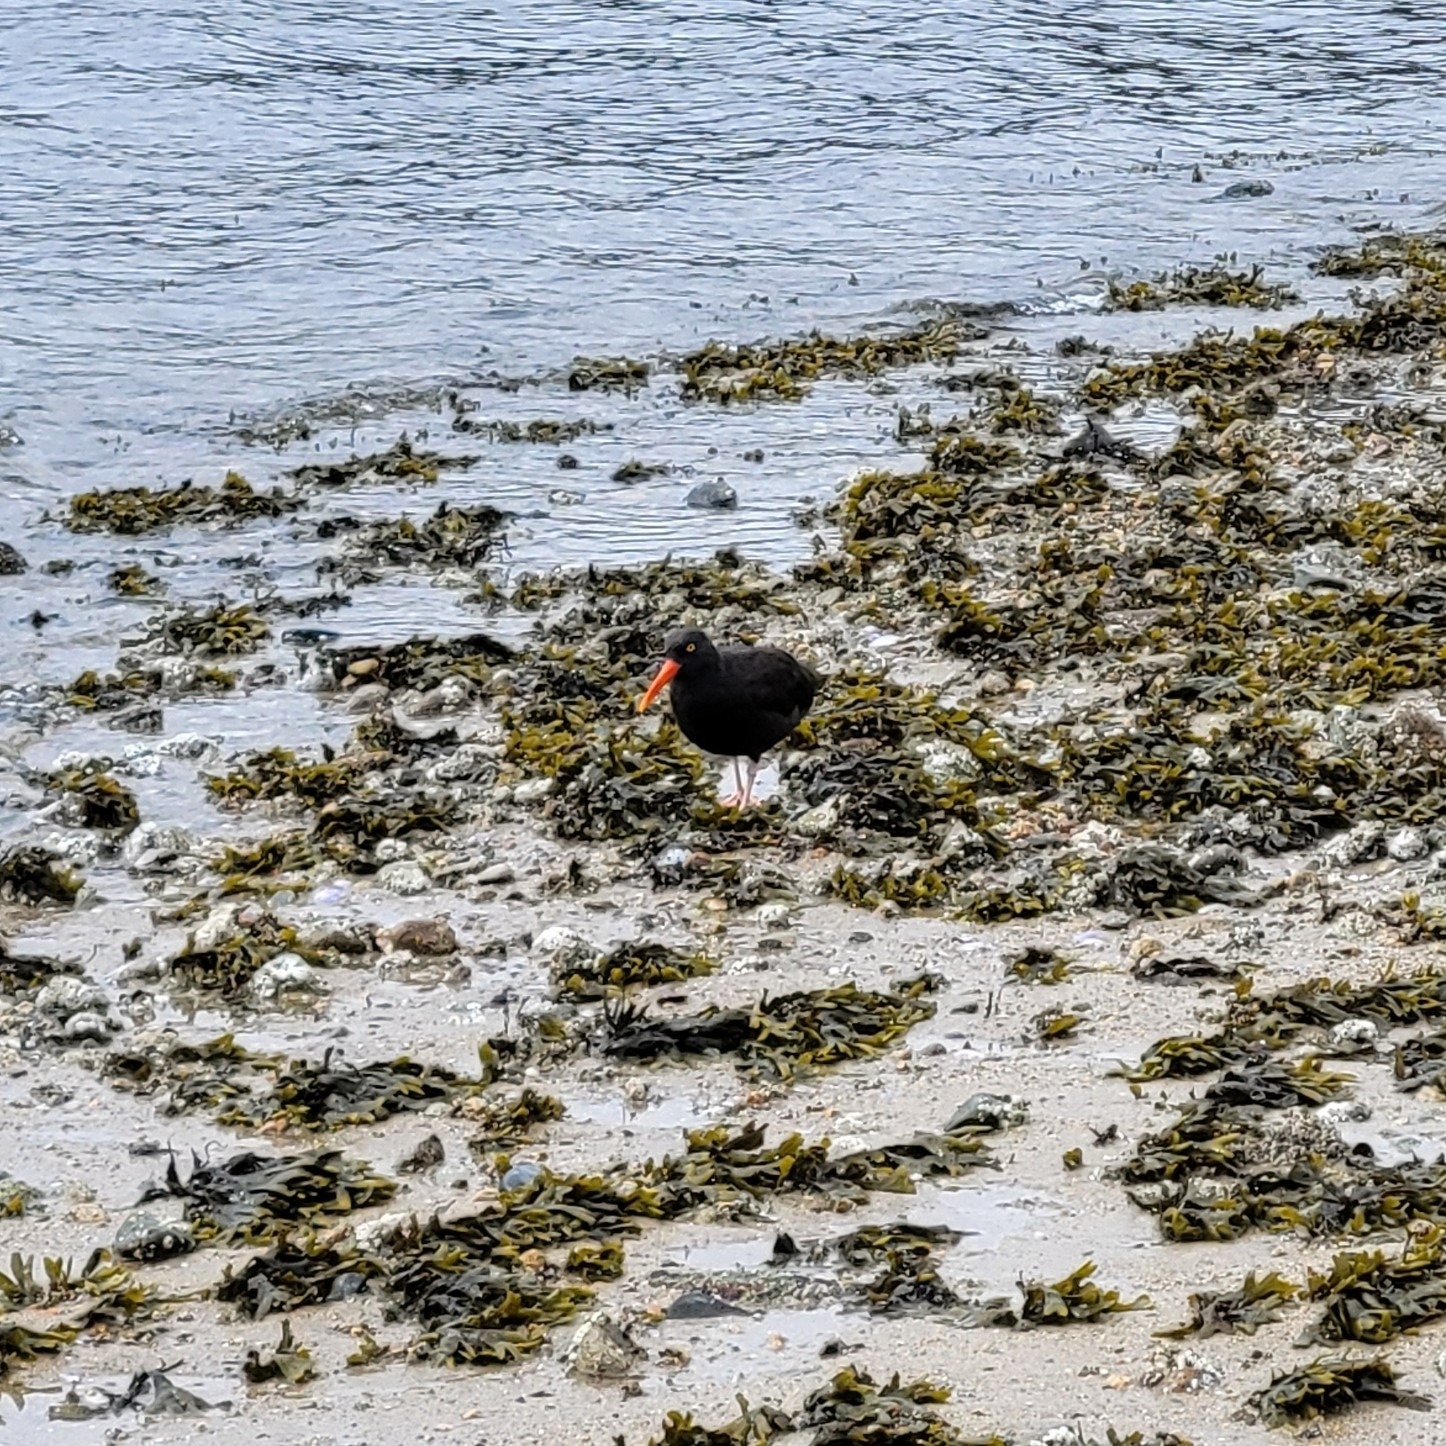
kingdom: Animalia
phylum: Chordata
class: Aves
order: Charadriiformes
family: Haematopodidae
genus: Haematopus
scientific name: Haematopus bachmani
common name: Black oystercatcher
